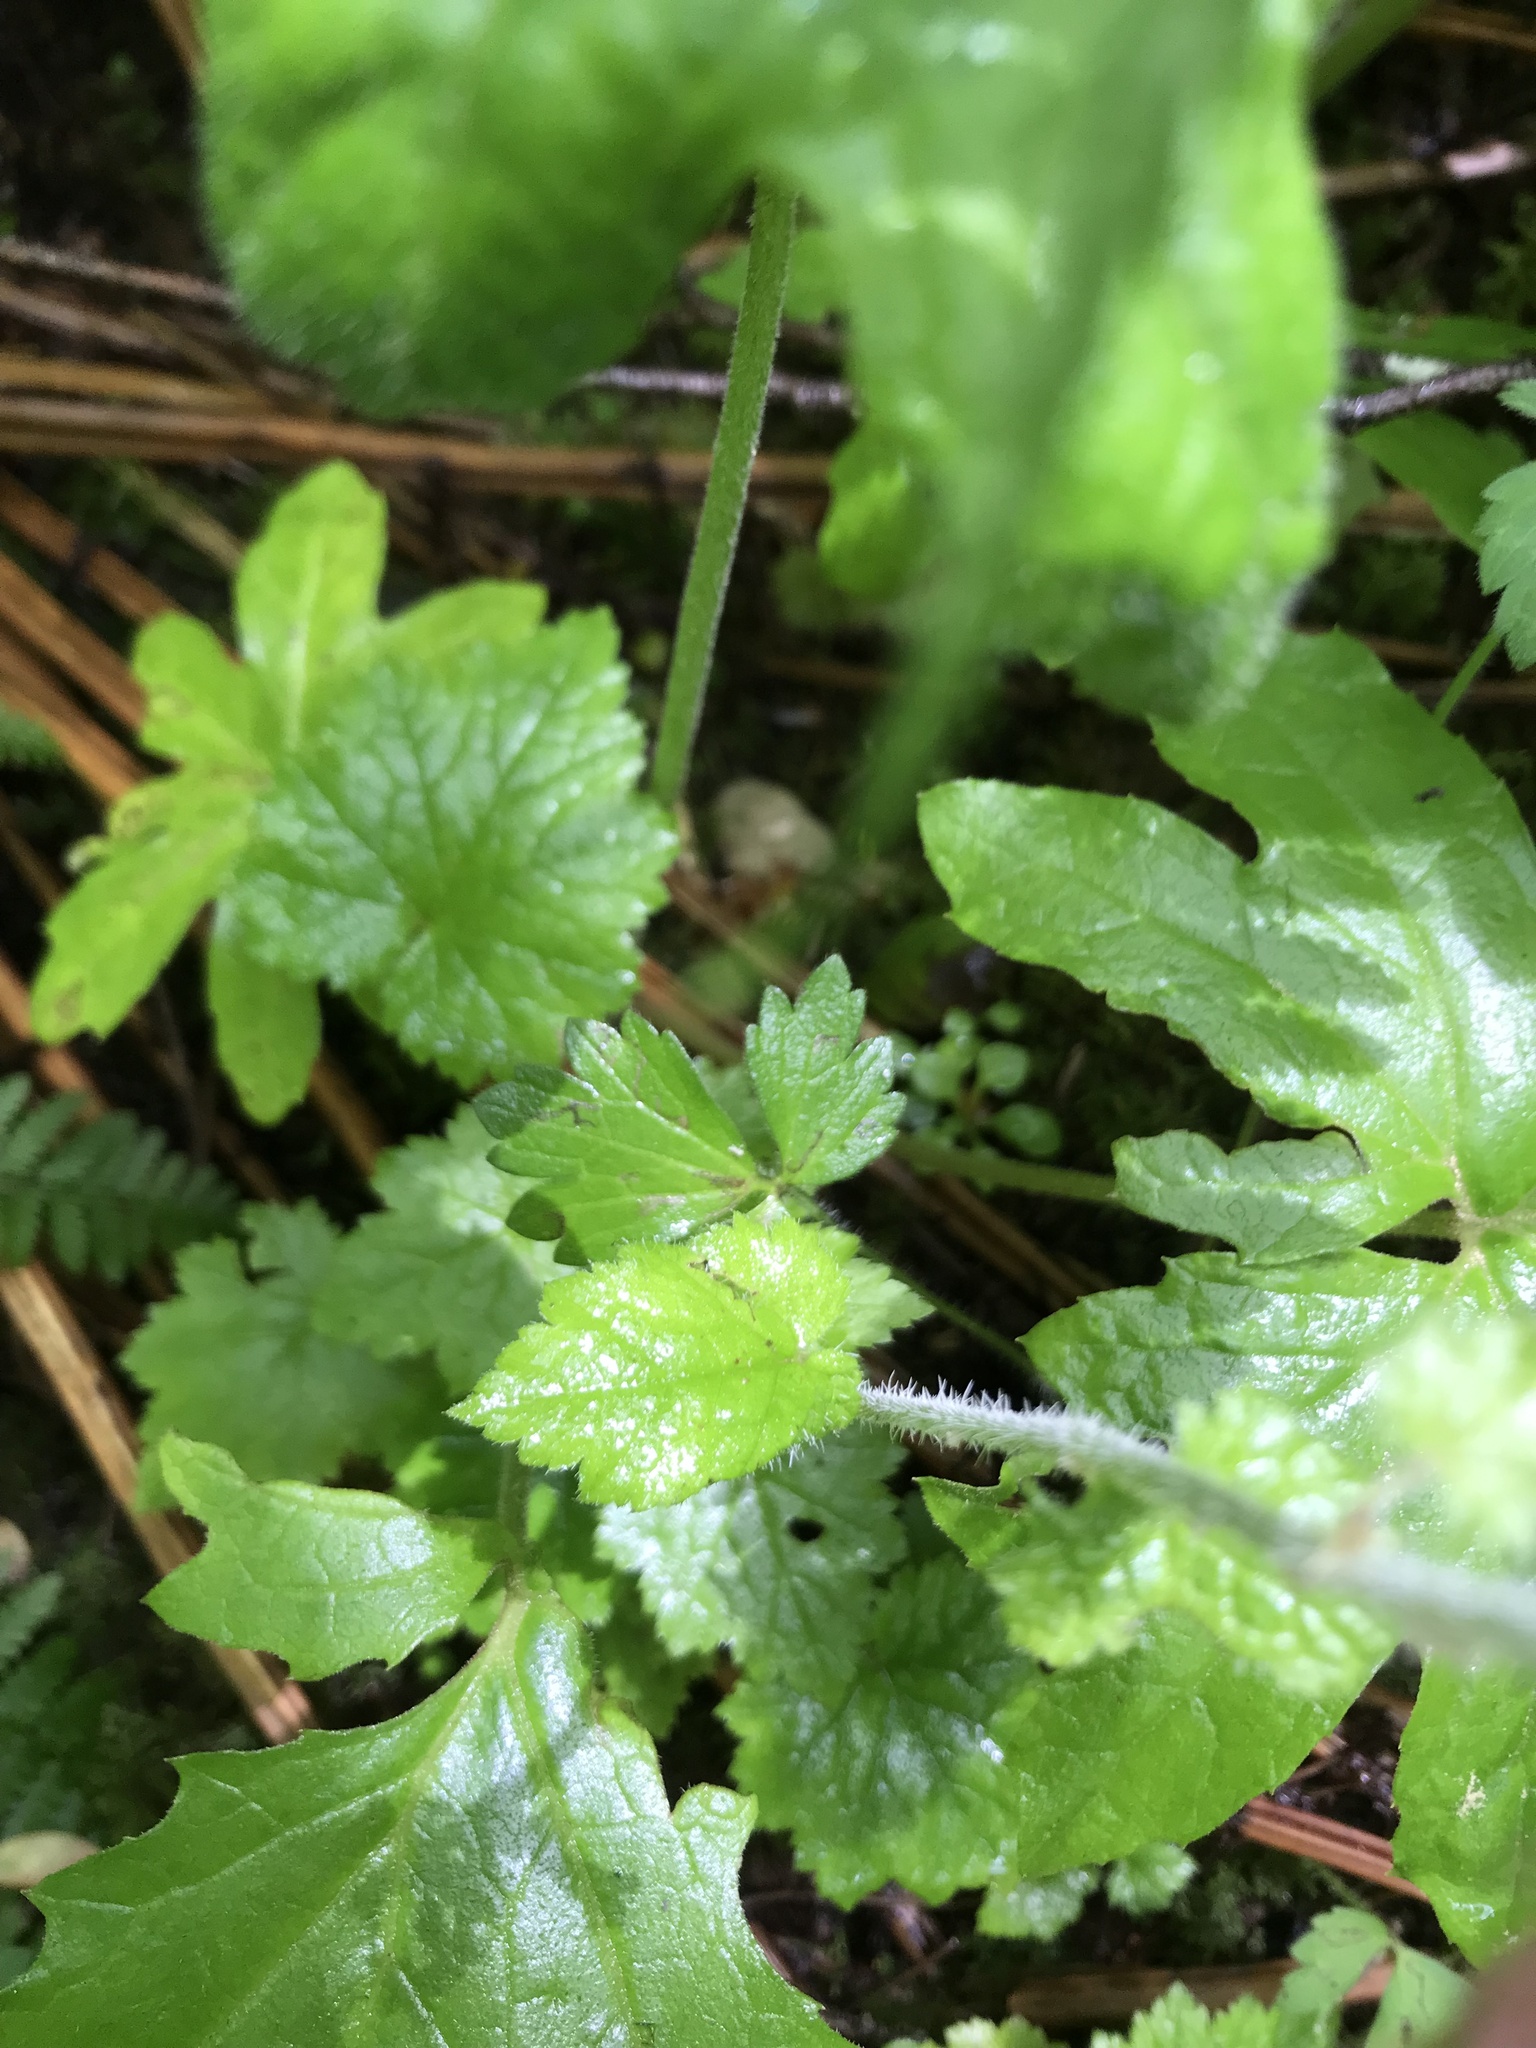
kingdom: Plantae
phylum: Tracheophyta
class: Magnoliopsida
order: Saxifragales
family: Saxifragaceae
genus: Tolmiea
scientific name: Tolmiea menziesii
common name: Pick-a-back-plant
